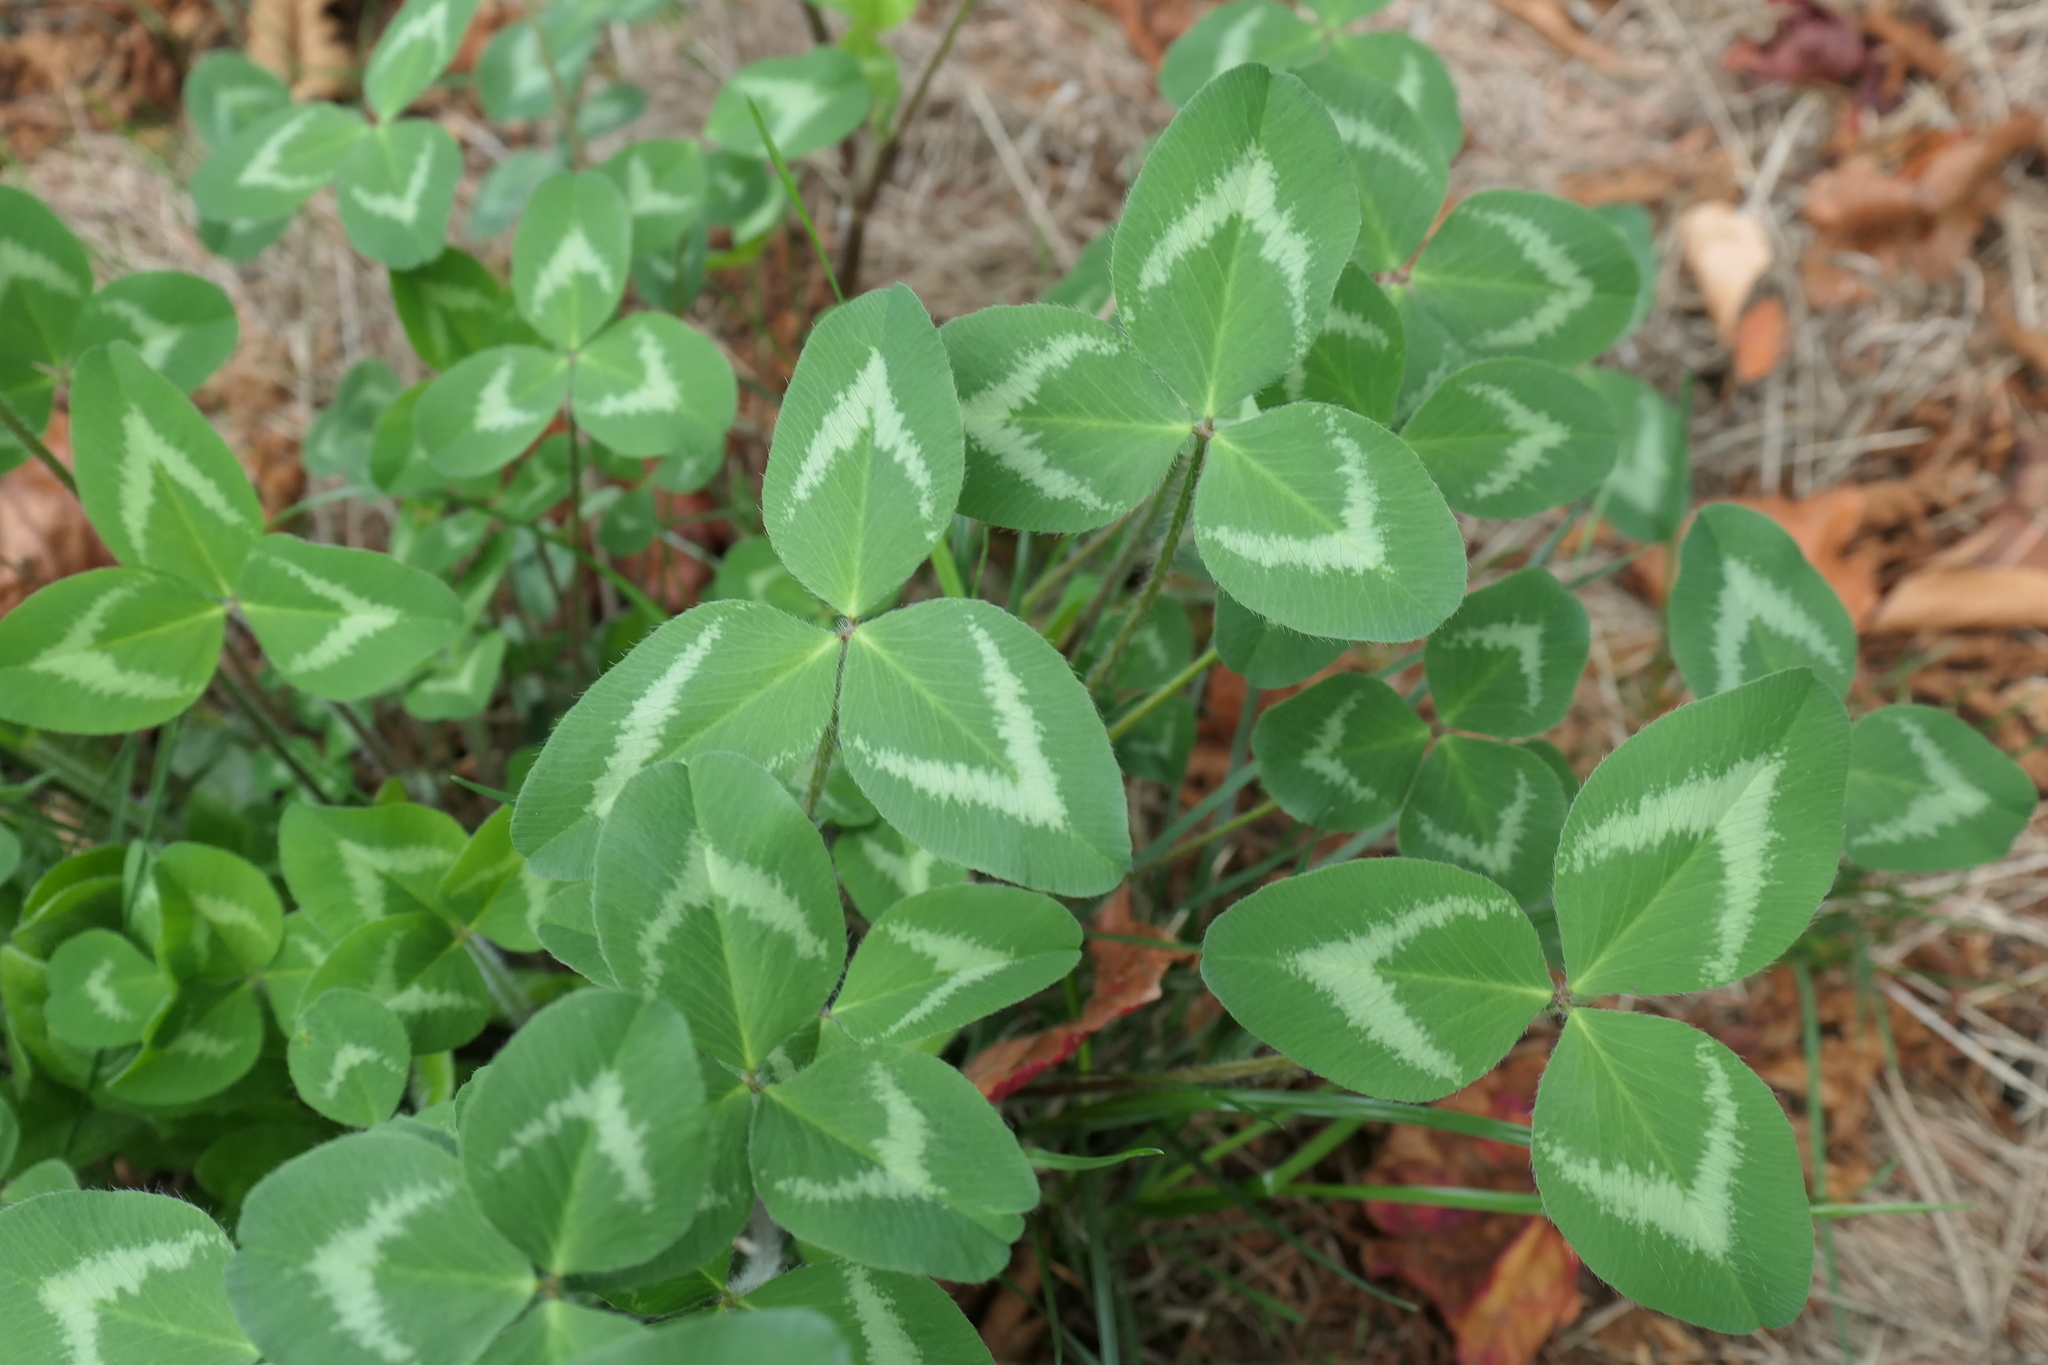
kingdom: Plantae
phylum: Tracheophyta
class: Magnoliopsida
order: Fabales
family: Fabaceae
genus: Trifolium
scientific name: Trifolium pratense
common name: Red clover
